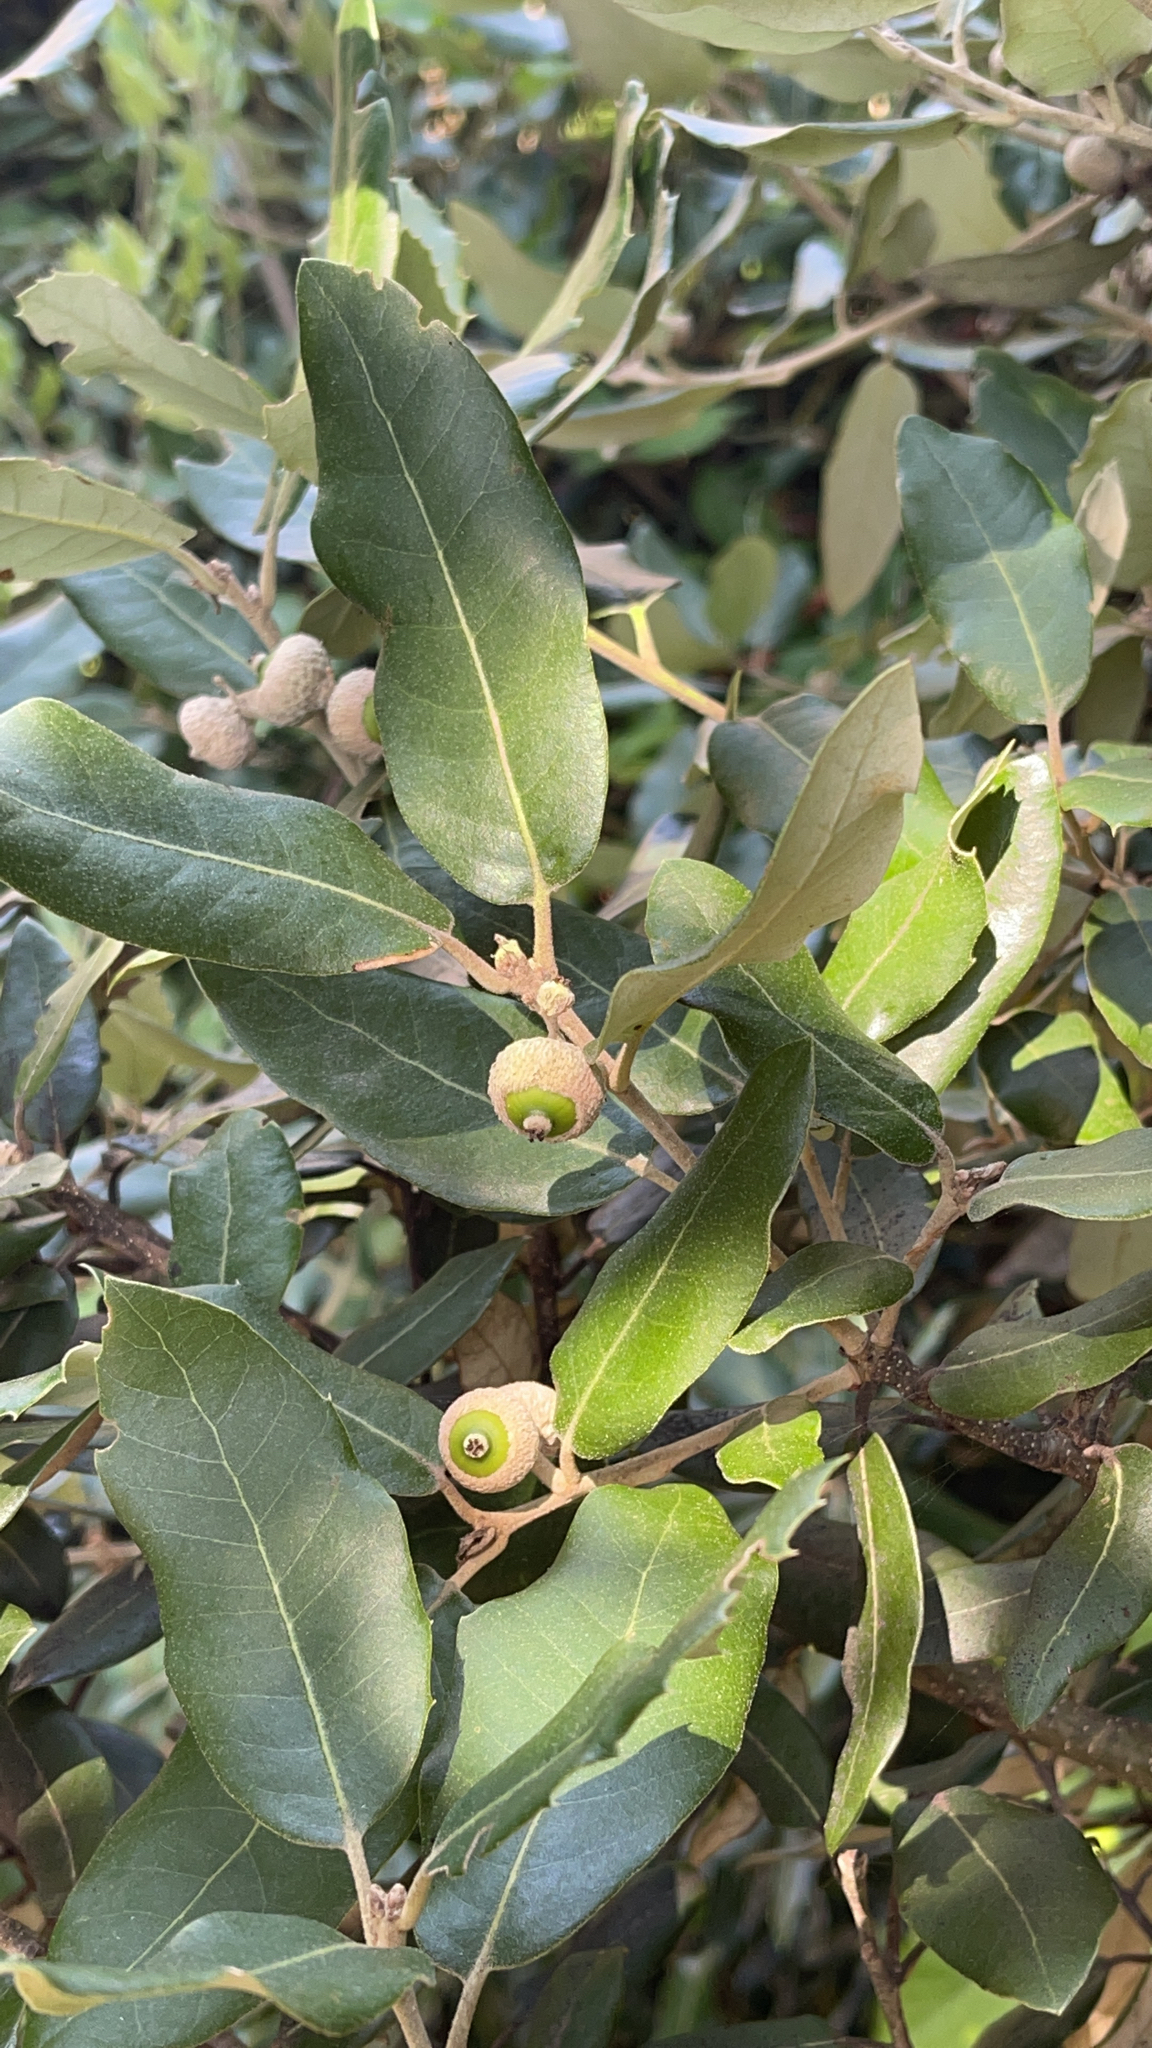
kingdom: Plantae
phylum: Tracheophyta
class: Magnoliopsida
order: Fagales
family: Fagaceae
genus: Quercus
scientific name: Quercus ilex
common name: Evergreen oak
